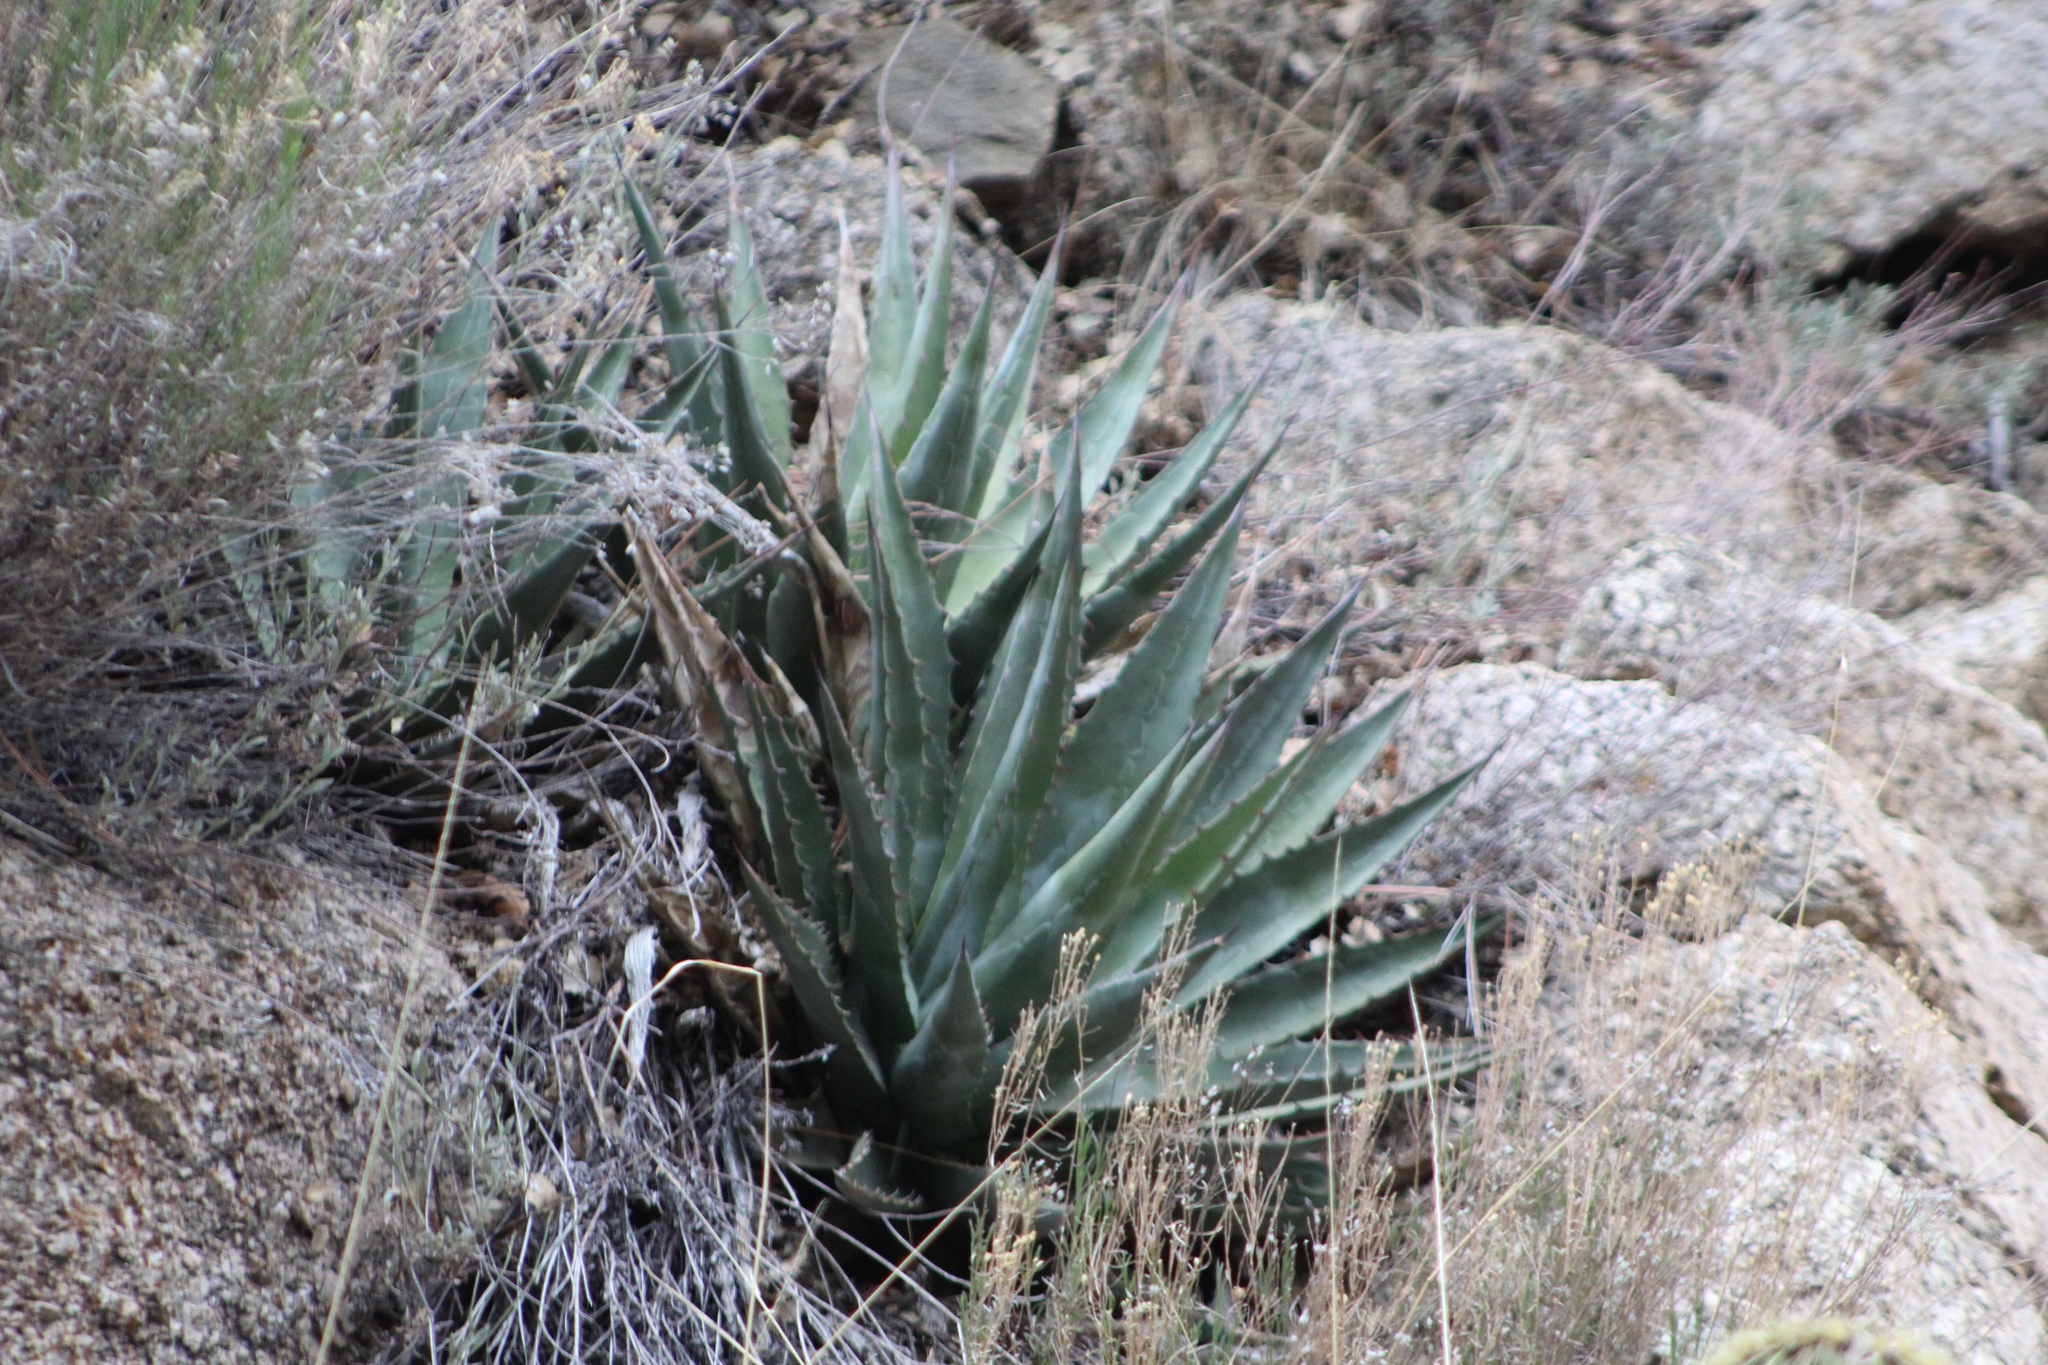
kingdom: Plantae
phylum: Tracheophyta
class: Liliopsida
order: Asparagales
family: Asparagaceae
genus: Agave
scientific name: Agave mckelveyana
